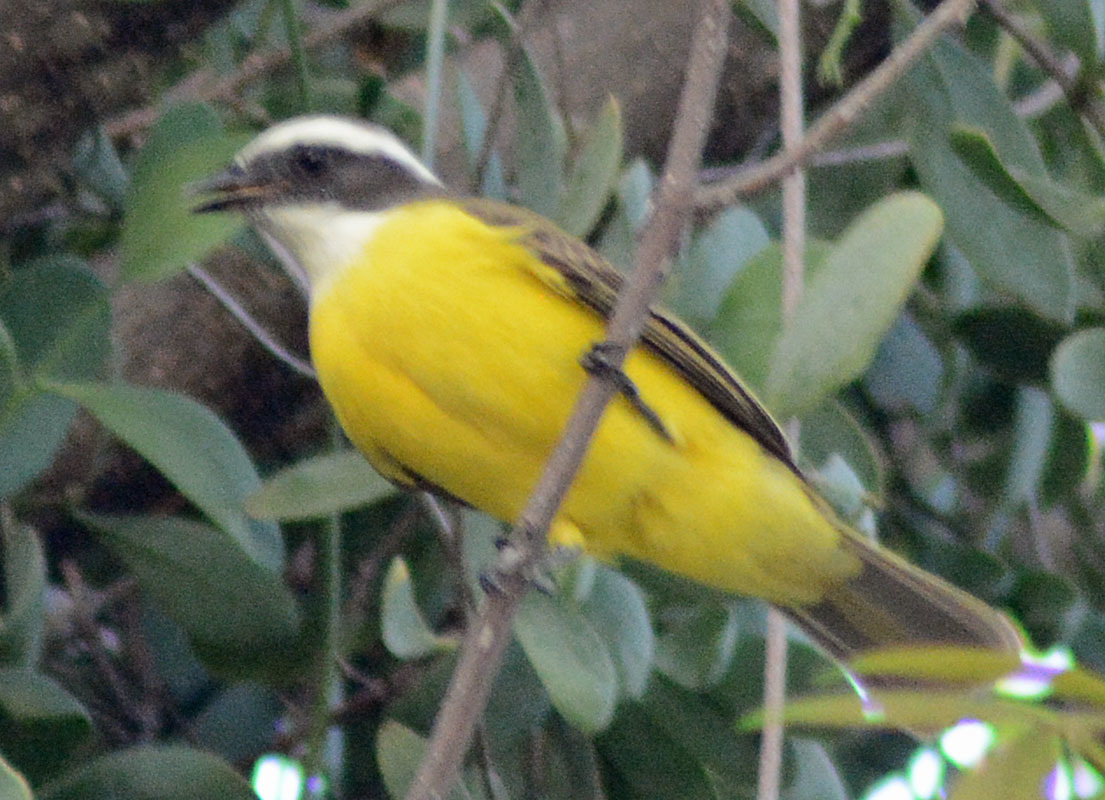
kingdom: Animalia
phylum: Chordata
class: Aves
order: Passeriformes
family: Tyrannidae
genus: Myiozetetes
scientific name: Myiozetetes similis
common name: Social flycatcher
